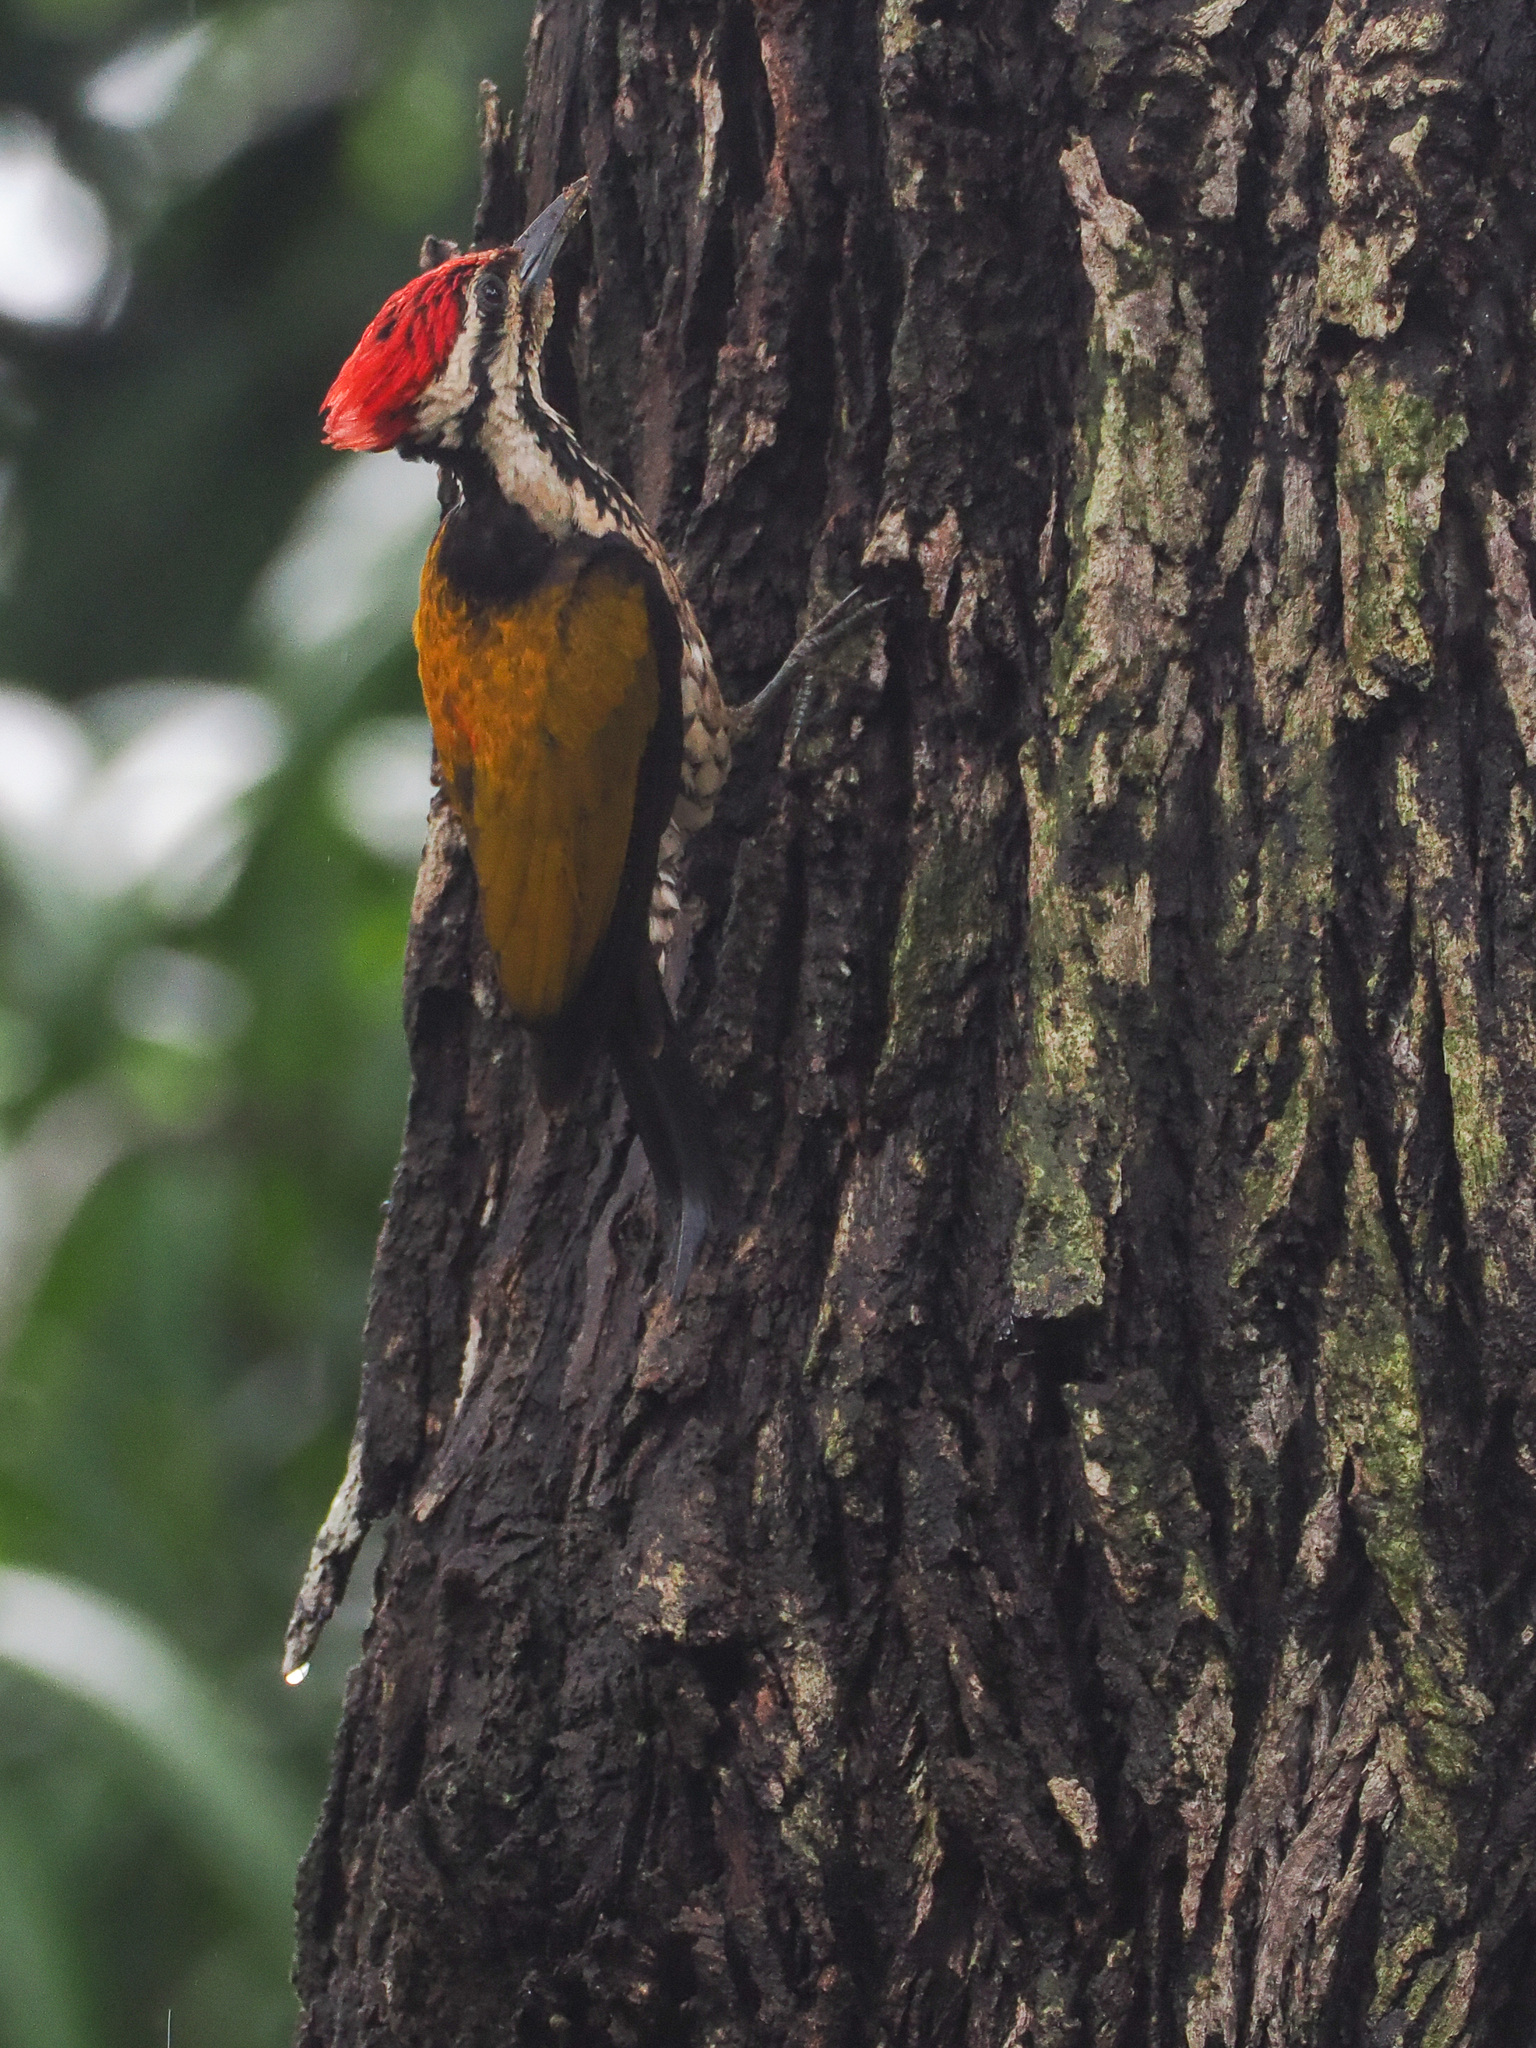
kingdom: Animalia
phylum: Chordata
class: Aves
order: Piciformes
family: Picidae
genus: Dinopium
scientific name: Dinopium javanense
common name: Common flameback
